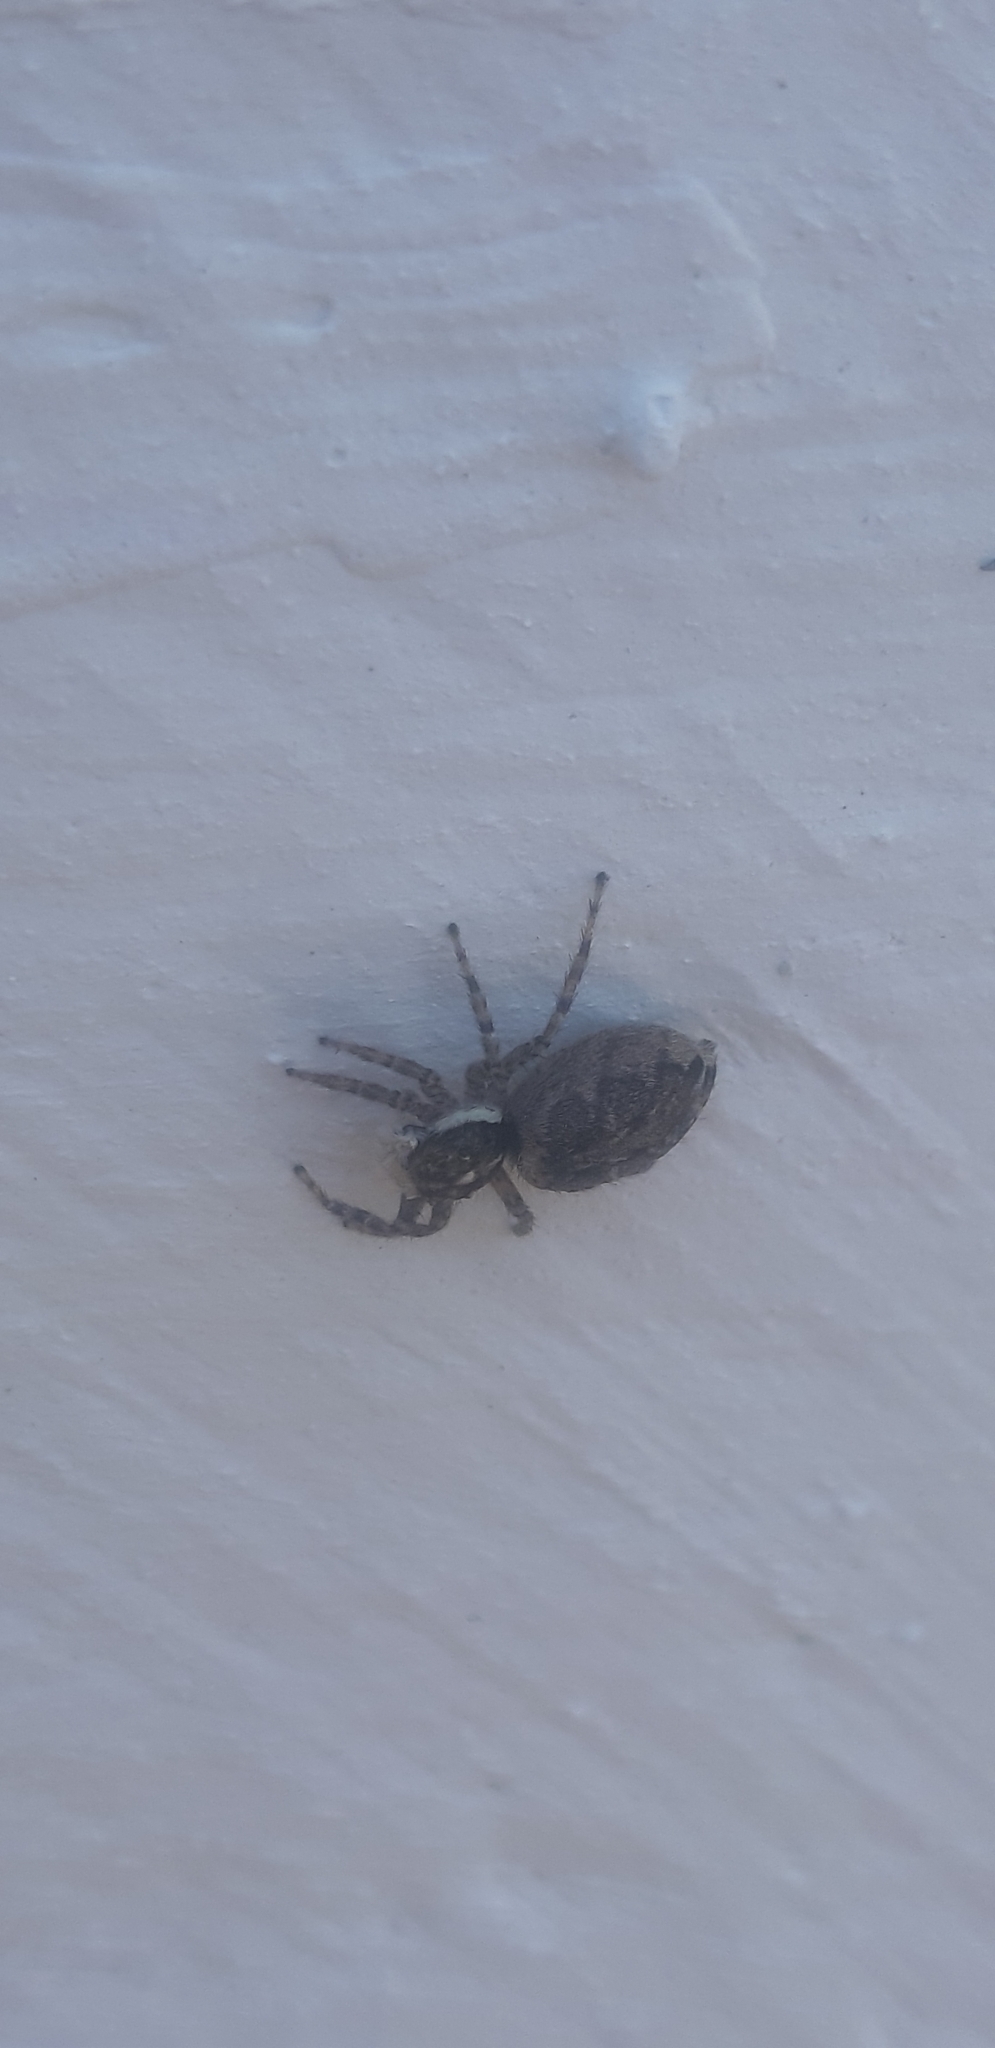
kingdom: Animalia
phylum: Arthropoda
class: Arachnida
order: Araneae
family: Salticidae
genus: Menemerus
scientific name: Menemerus semilimbatus
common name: Jumping spider
